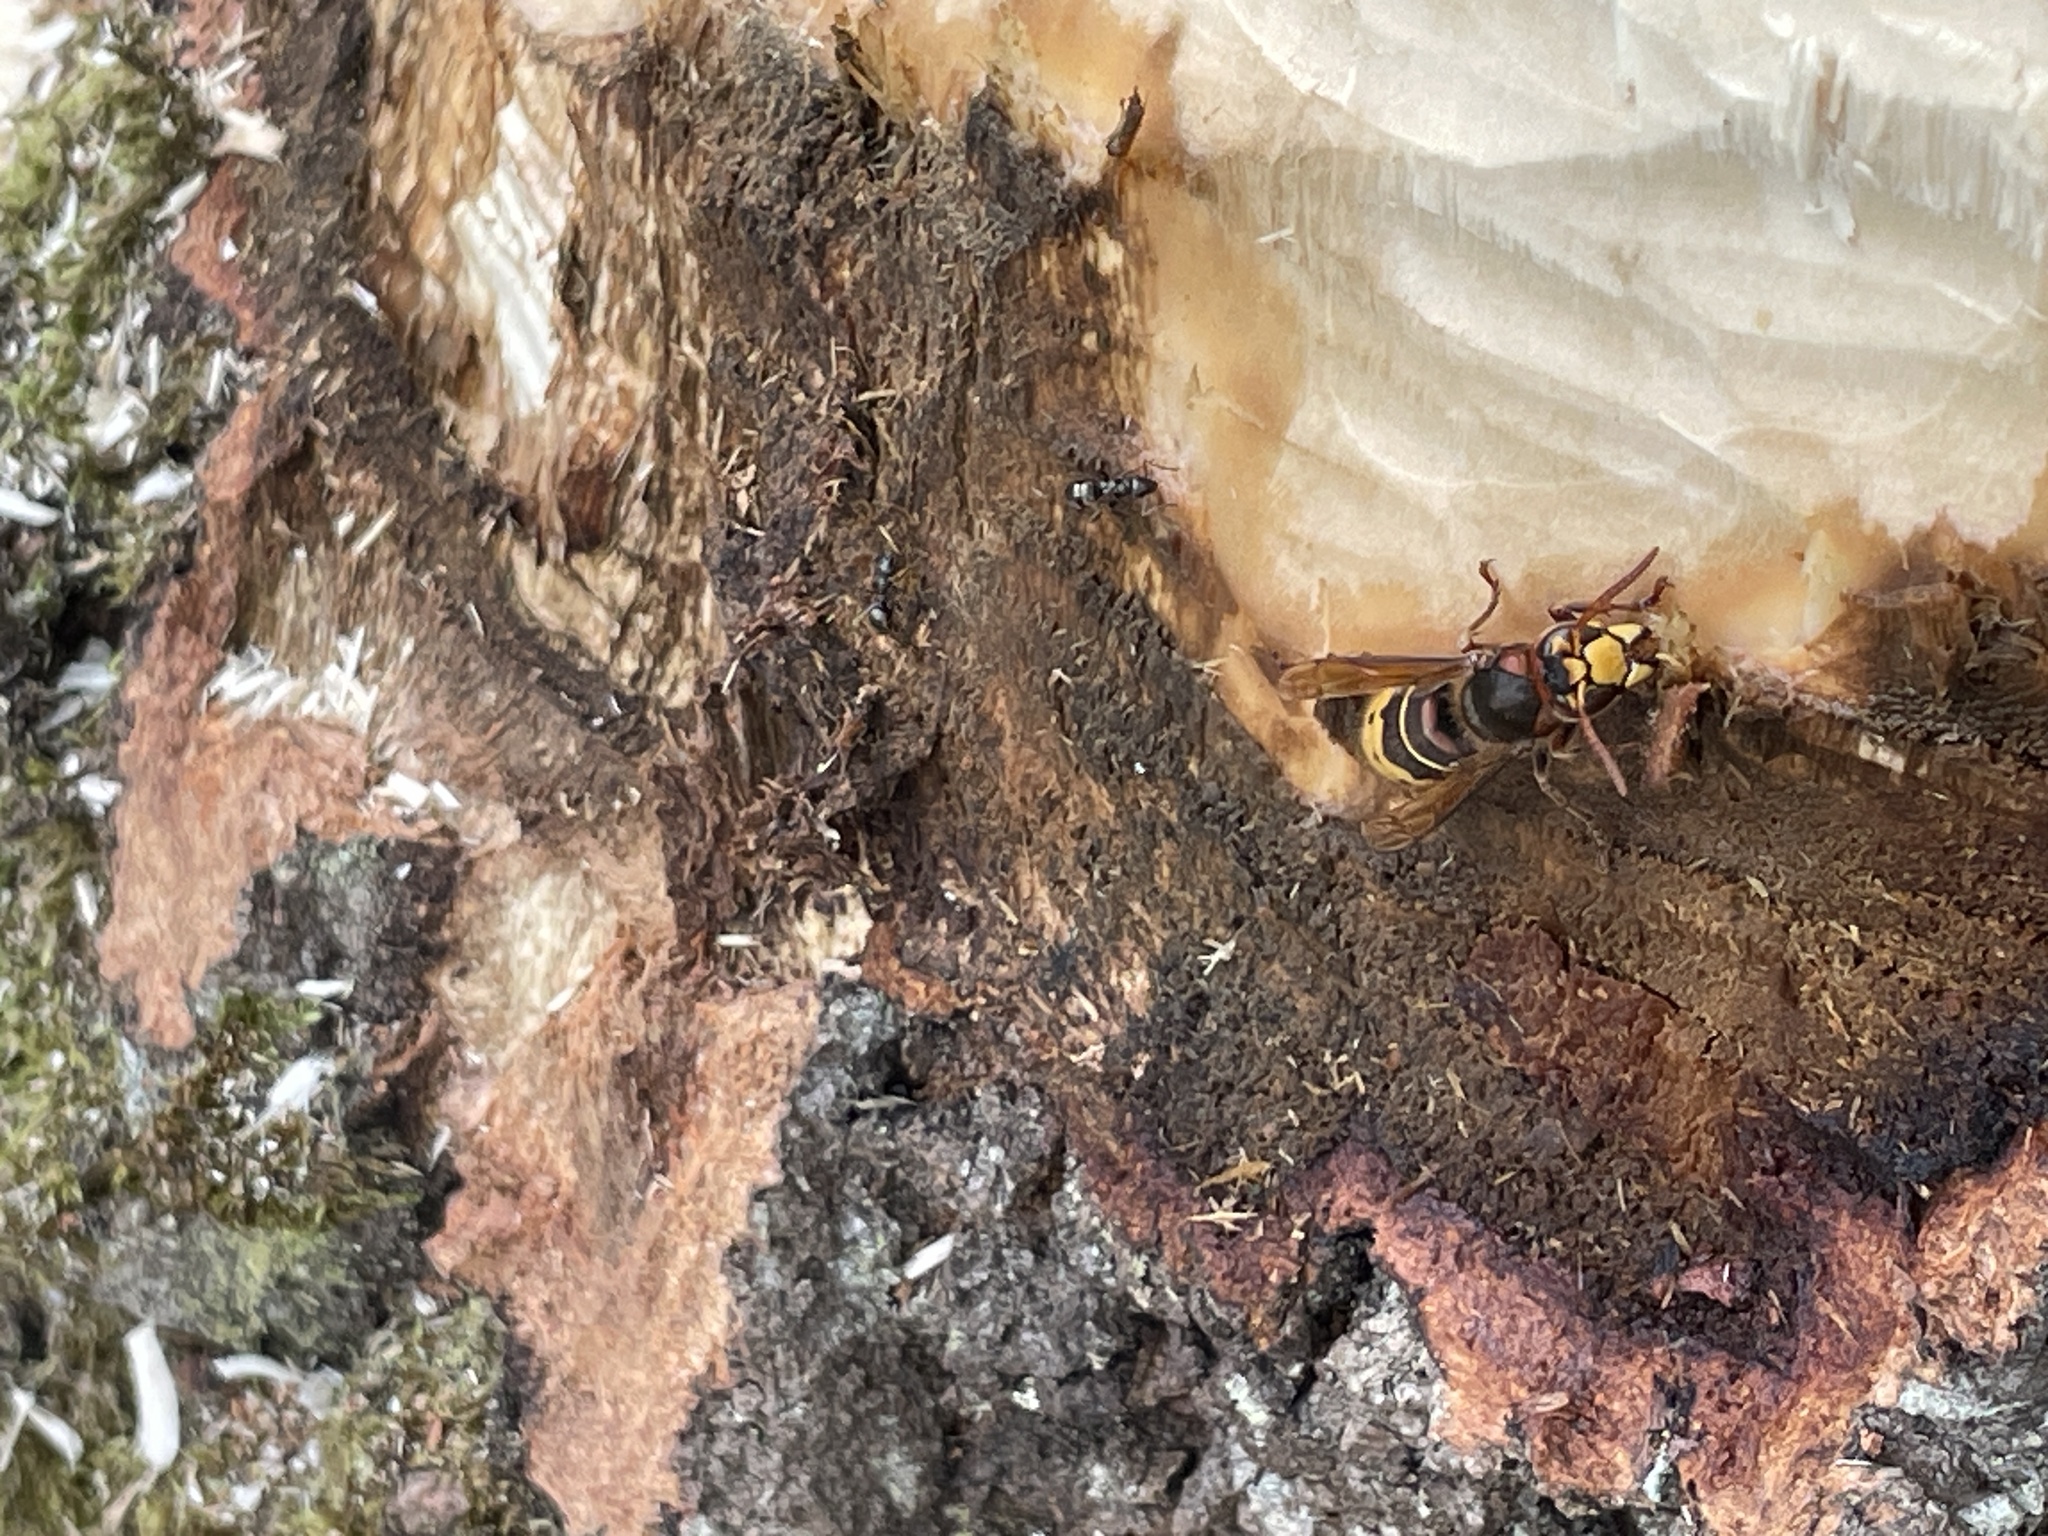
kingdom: Animalia
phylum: Arthropoda
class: Insecta
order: Hymenoptera
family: Vespidae
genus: Vespa
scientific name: Vespa crabro
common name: Hornet
